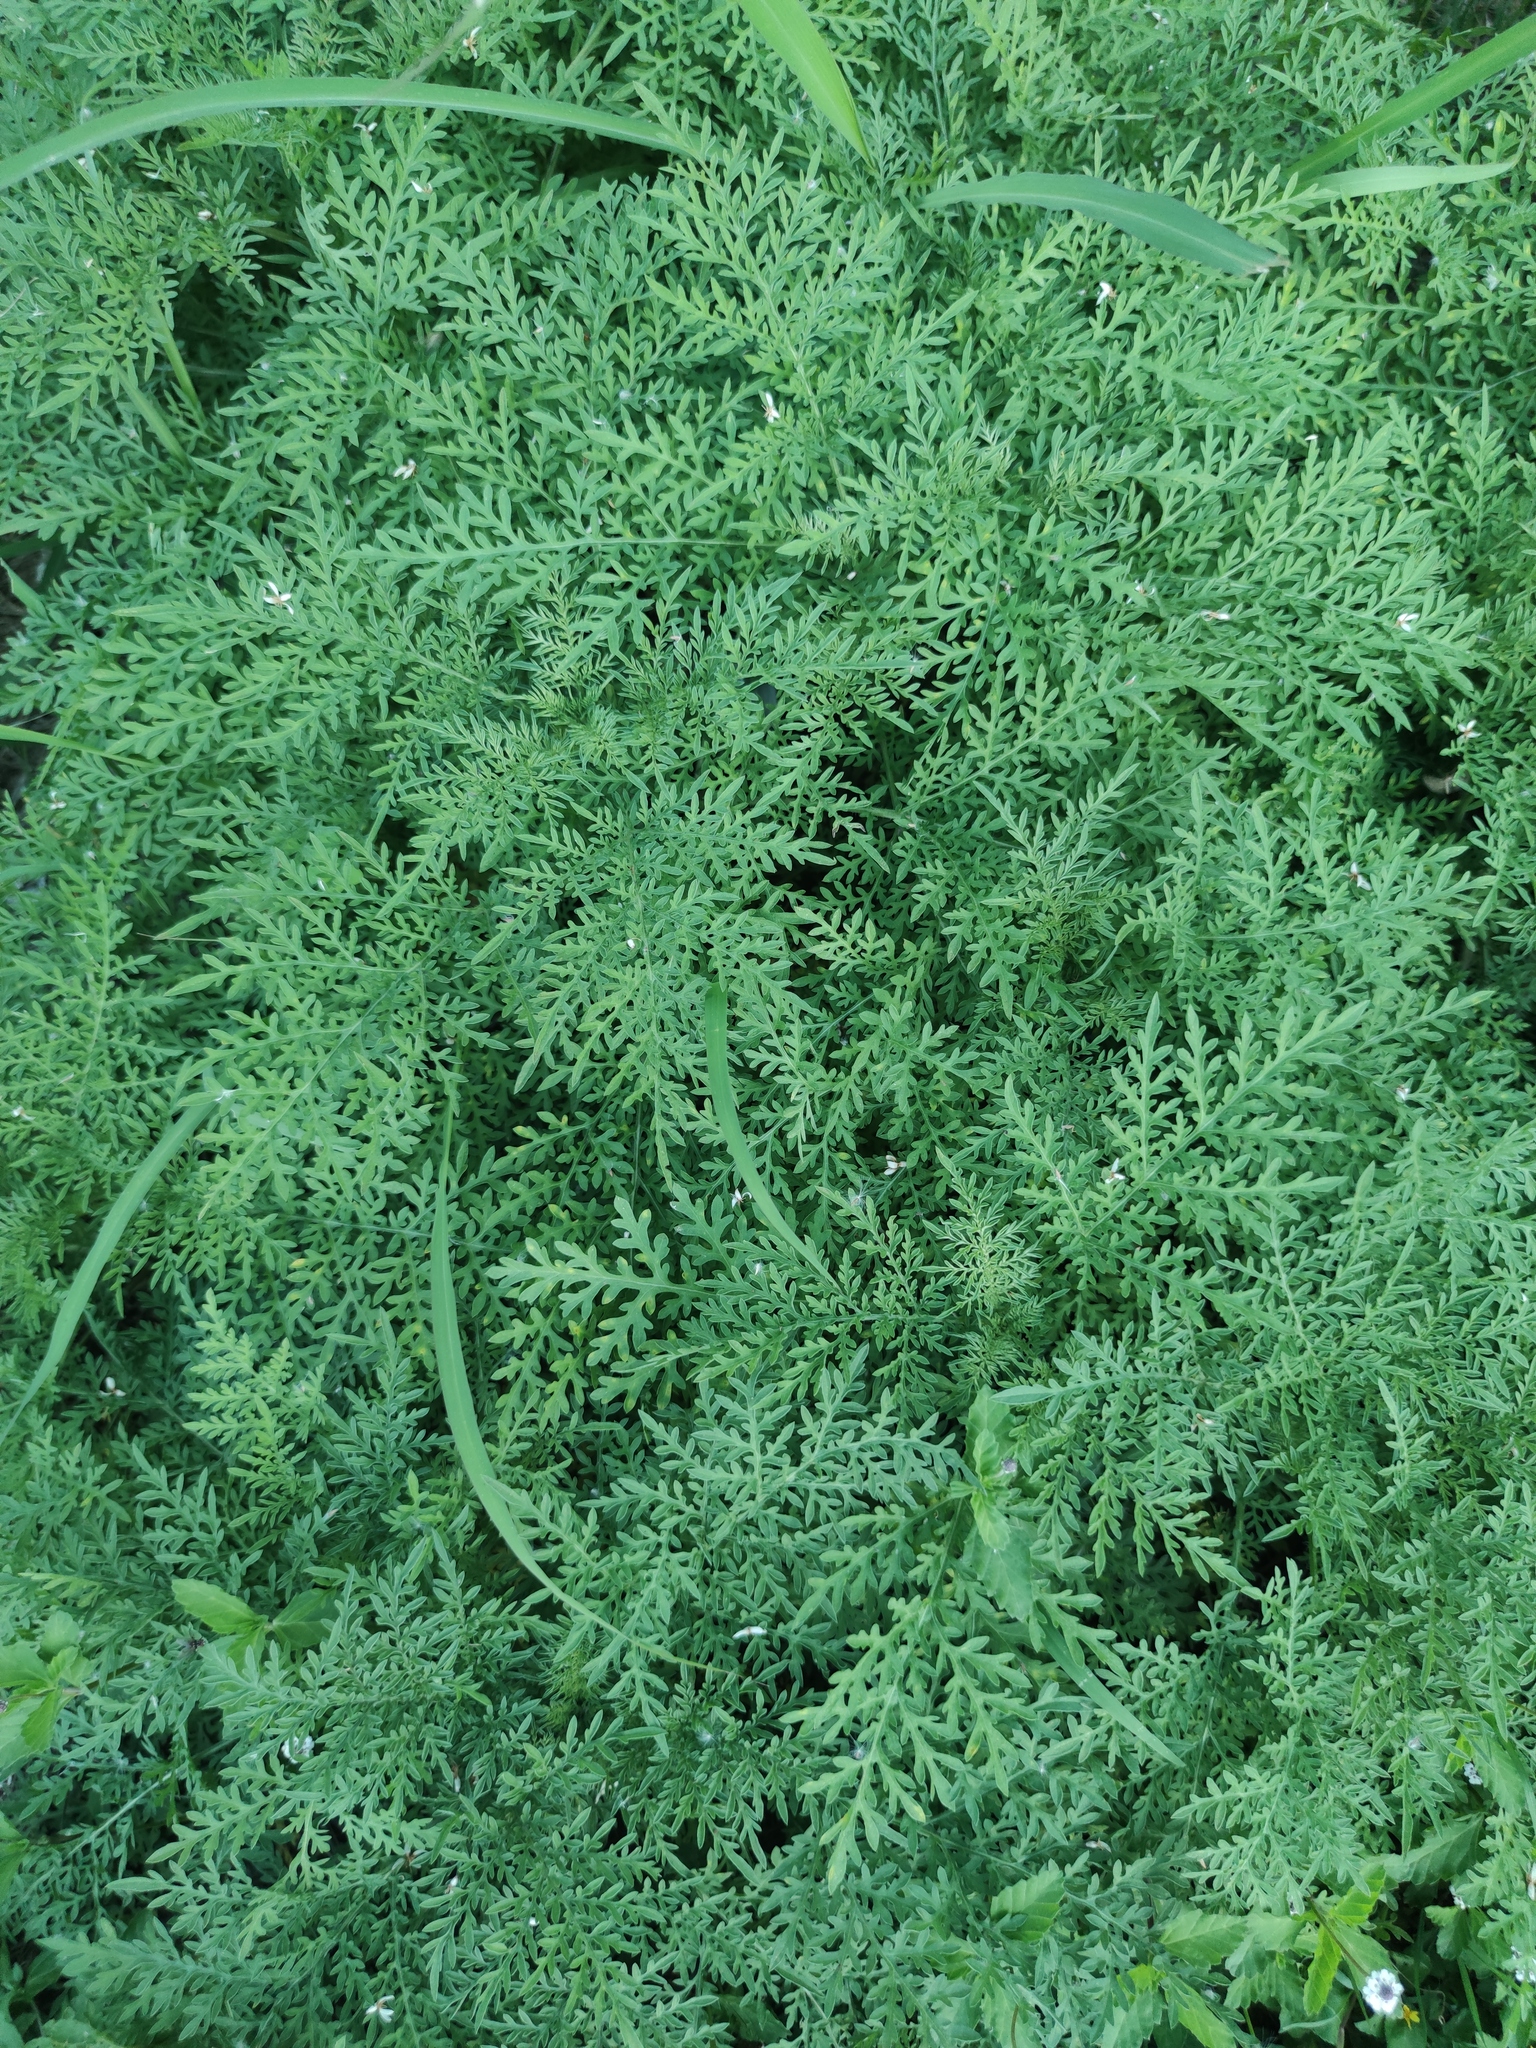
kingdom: Plantae
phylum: Tracheophyta
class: Magnoliopsida
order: Asterales
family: Asteraceae
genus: Ambrosia
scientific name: Ambrosia confertiflora
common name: Bur ragweed
